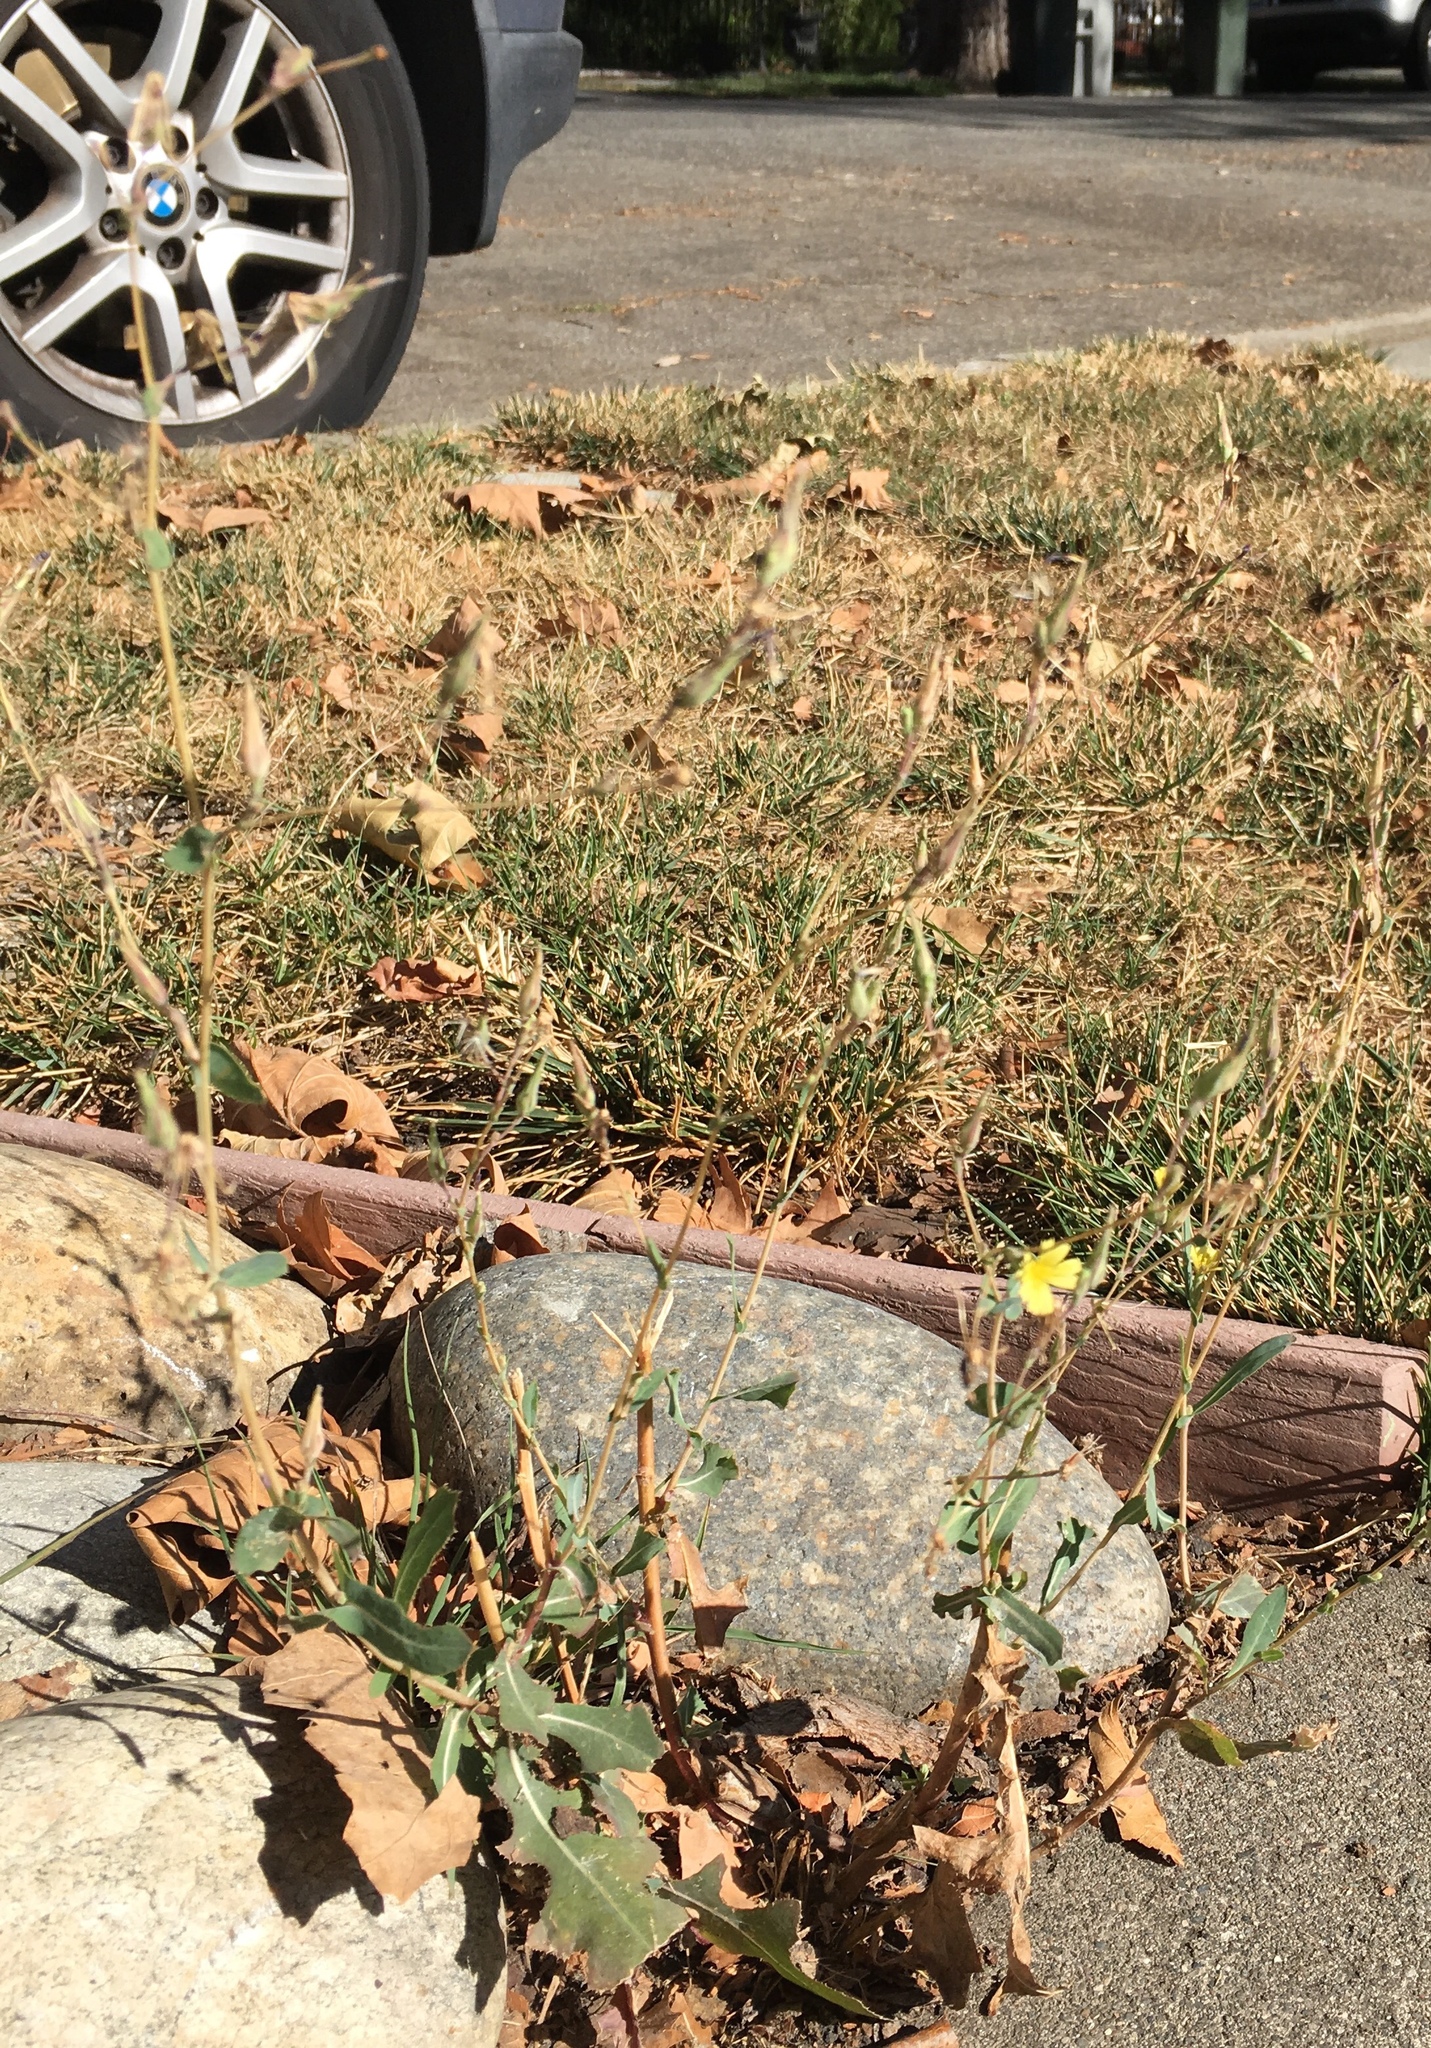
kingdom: Plantae
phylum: Tracheophyta
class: Magnoliopsida
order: Asterales
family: Asteraceae
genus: Lactuca
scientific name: Lactuca serriola
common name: Prickly lettuce
